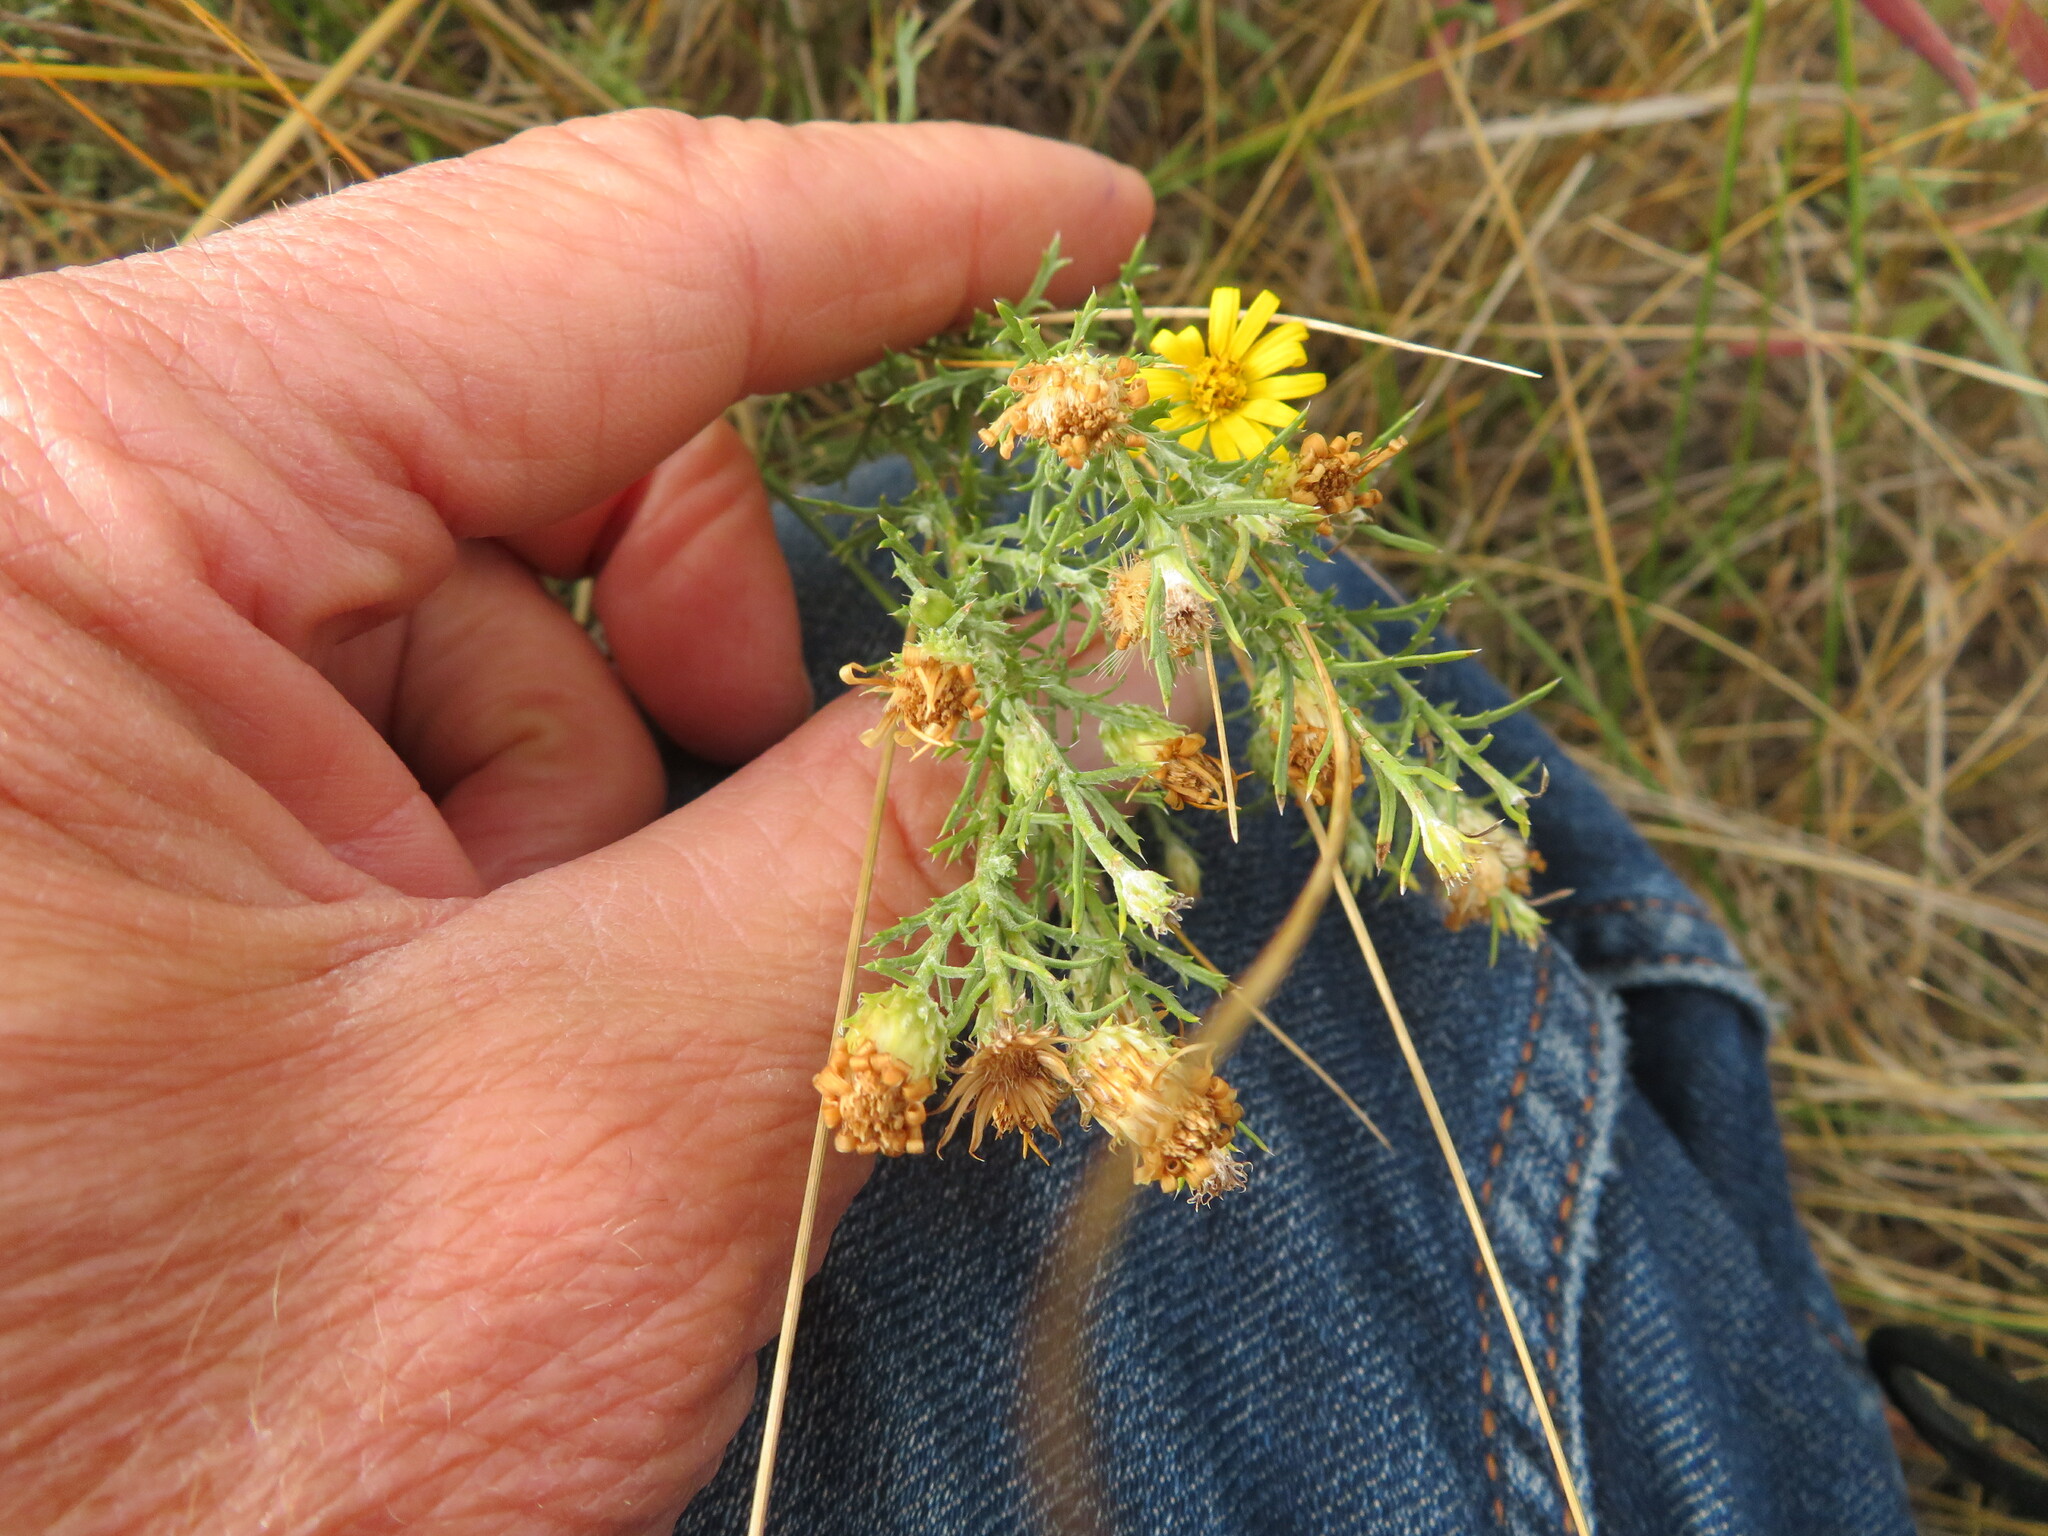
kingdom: Plantae
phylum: Tracheophyta
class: Magnoliopsida
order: Asterales
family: Asteraceae
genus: Xanthisma
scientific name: Xanthisma spinulosum
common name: Spiny goldenweed
